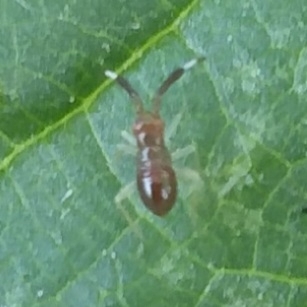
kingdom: Animalia
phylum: Arthropoda
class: Insecta
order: Hemiptera
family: Miridae
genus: Heterotoma
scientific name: Heterotoma planicornis
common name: Plant bug
